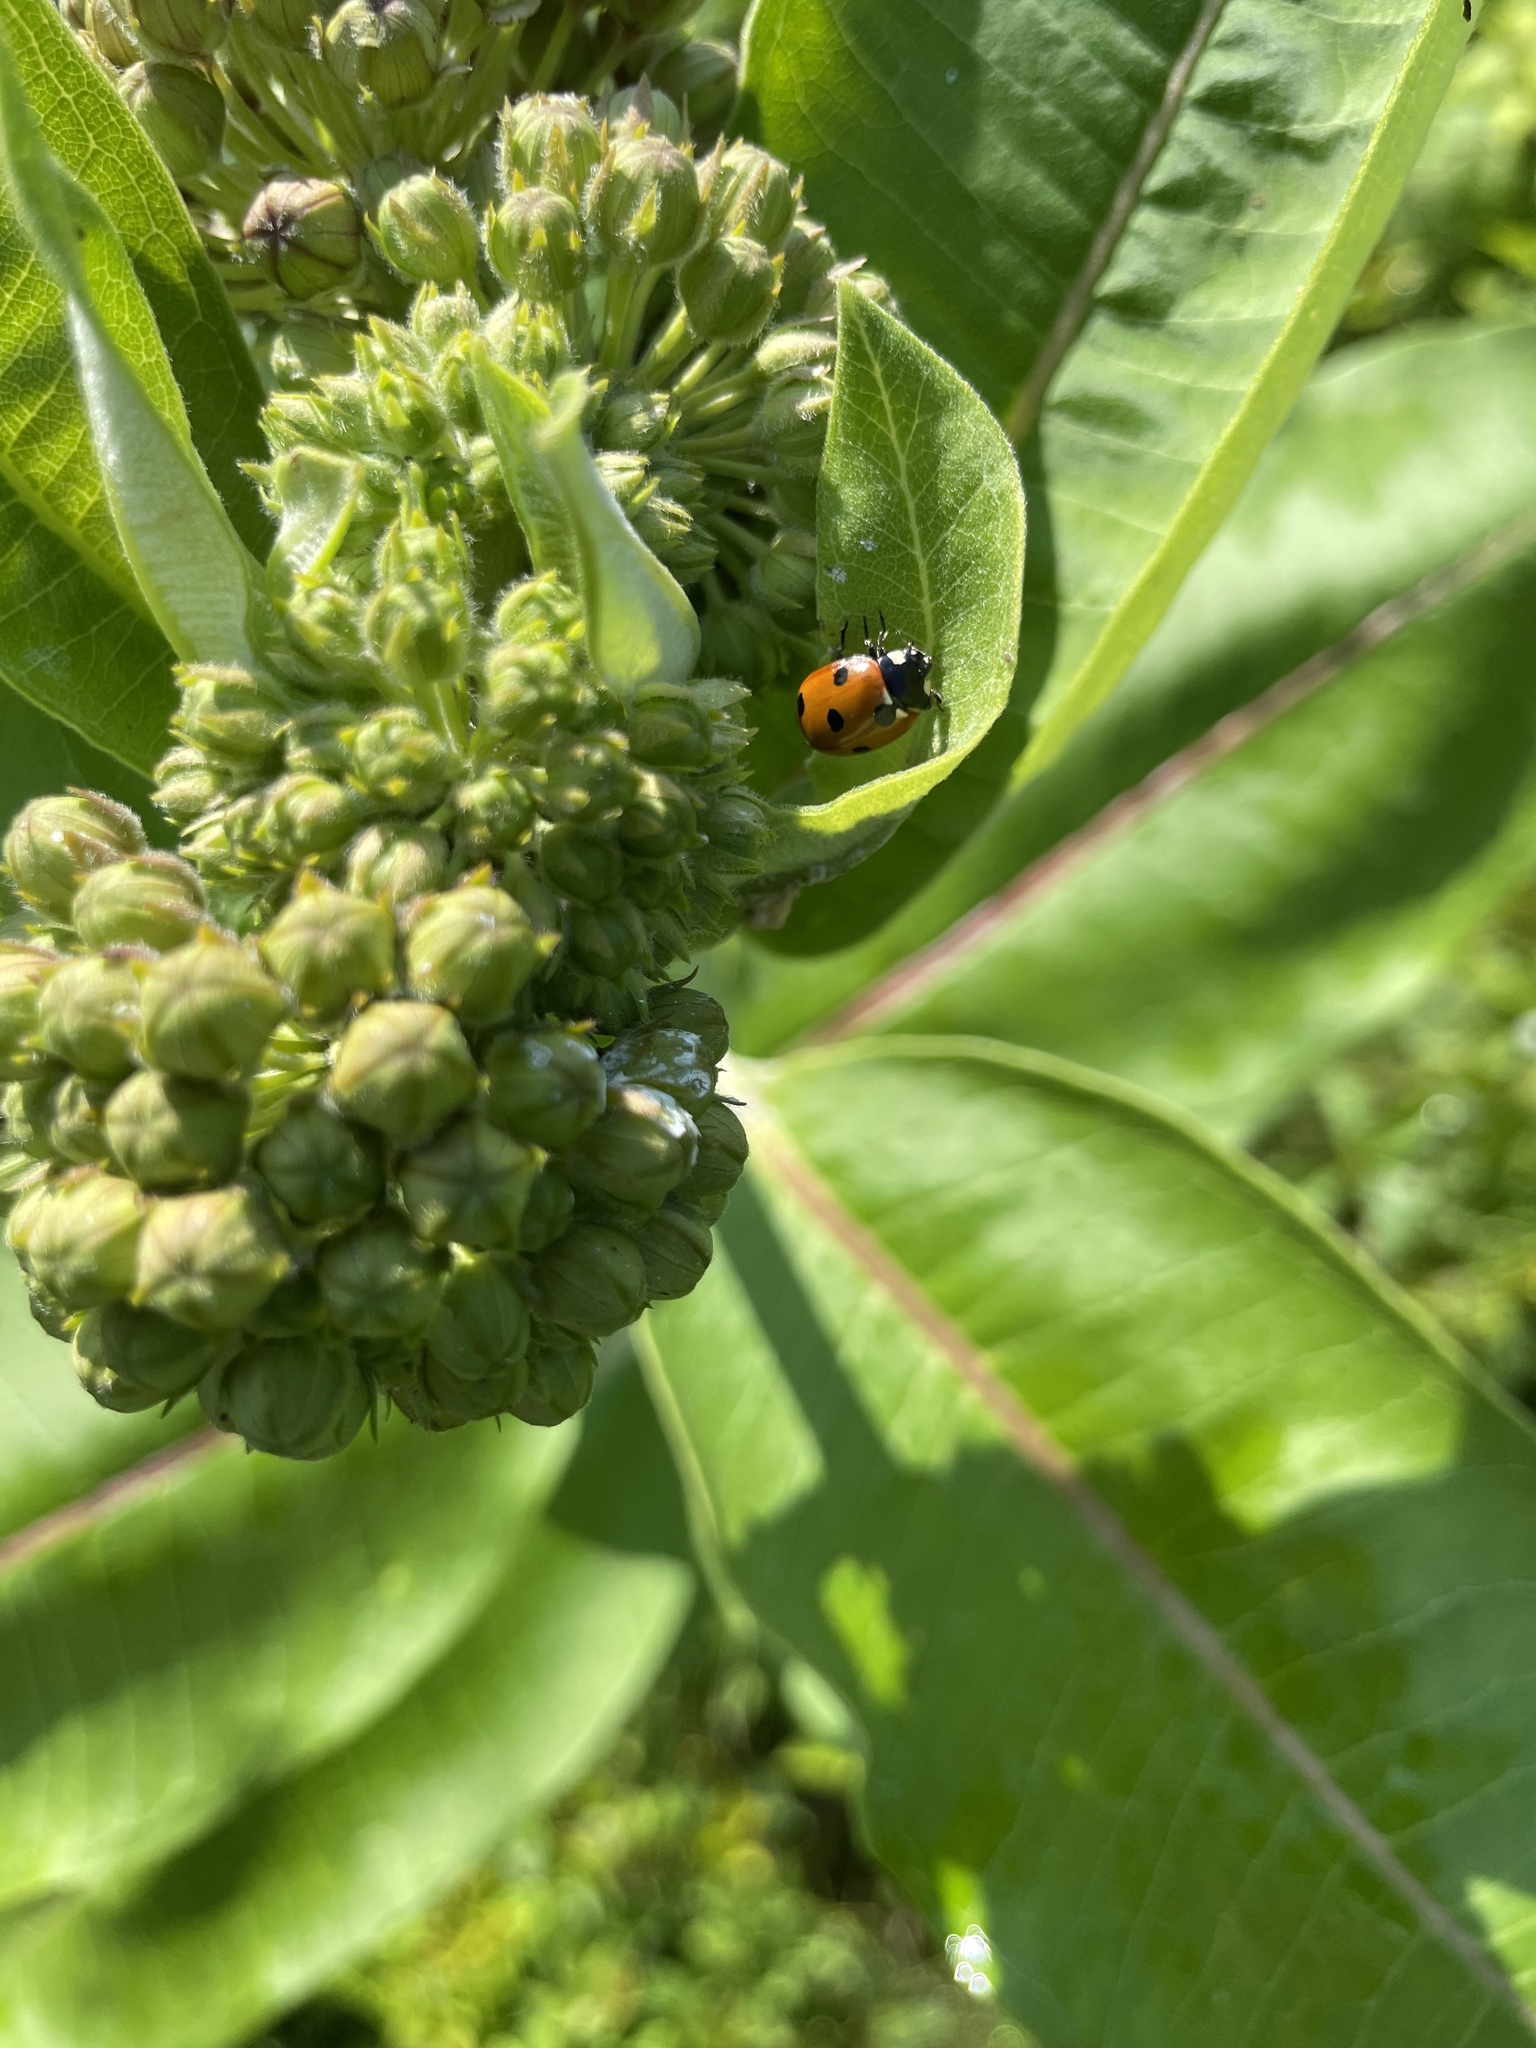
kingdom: Animalia
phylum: Arthropoda
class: Insecta
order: Coleoptera
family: Coccinellidae
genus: Coccinella
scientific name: Coccinella septempunctata
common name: Sevenspotted lady beetle
